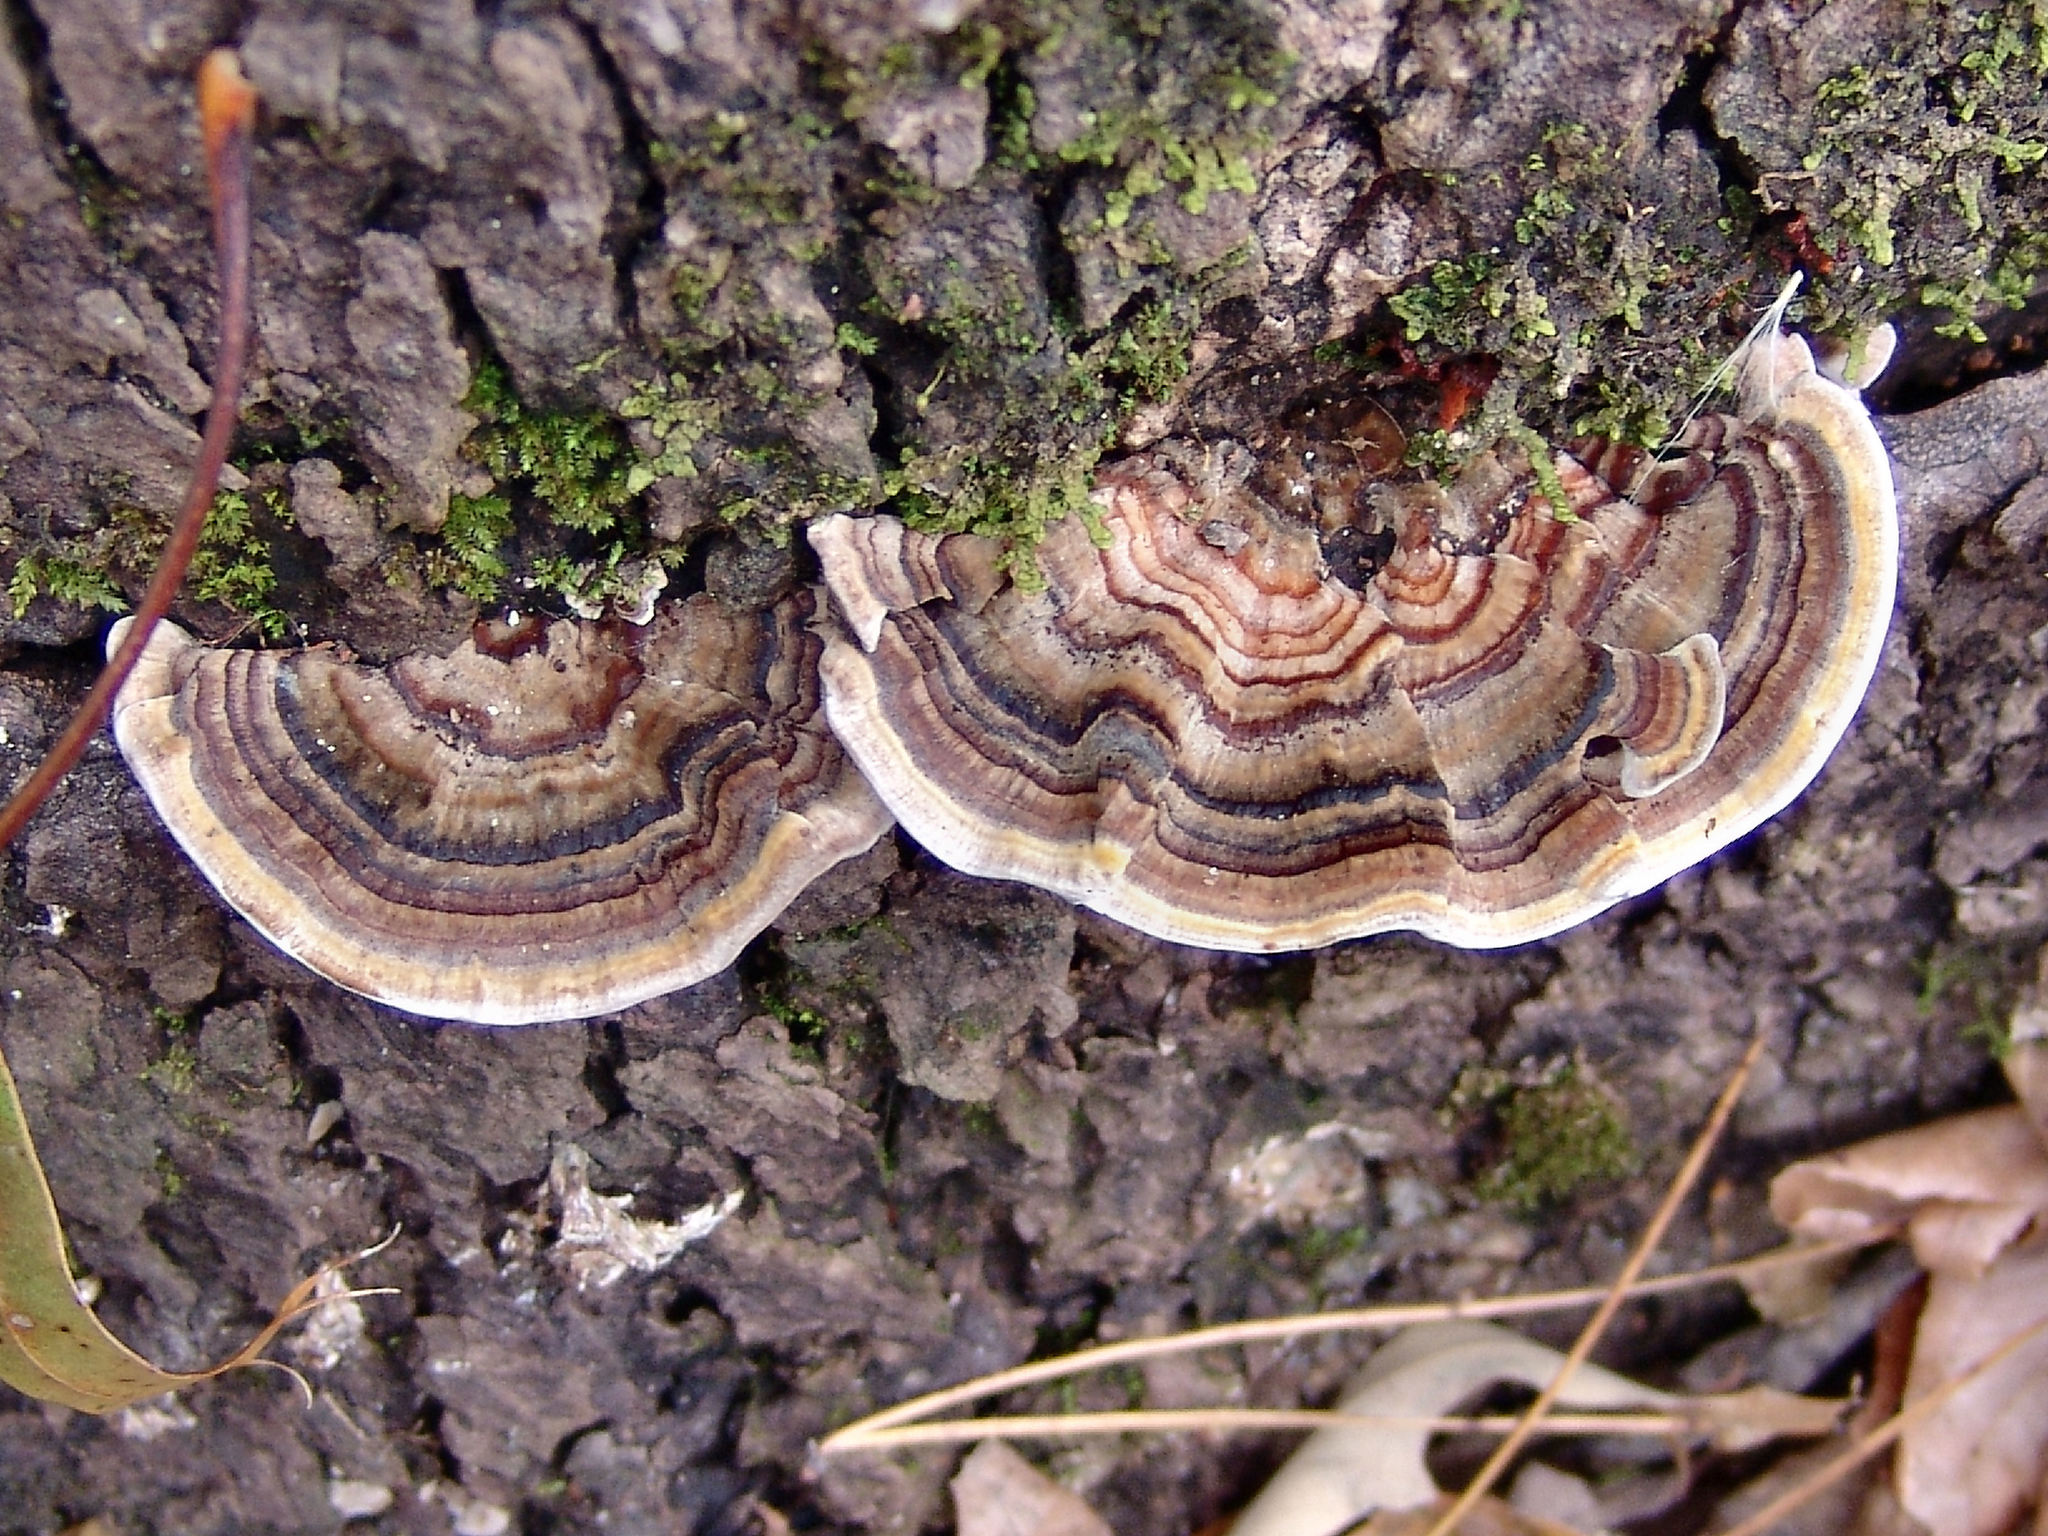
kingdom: Fungi
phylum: Basidiomycota
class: Agaricomycetes
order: Polyporales
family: Polyporaceae
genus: Trametes
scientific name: Trametes versicolor
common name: Turkeytail
